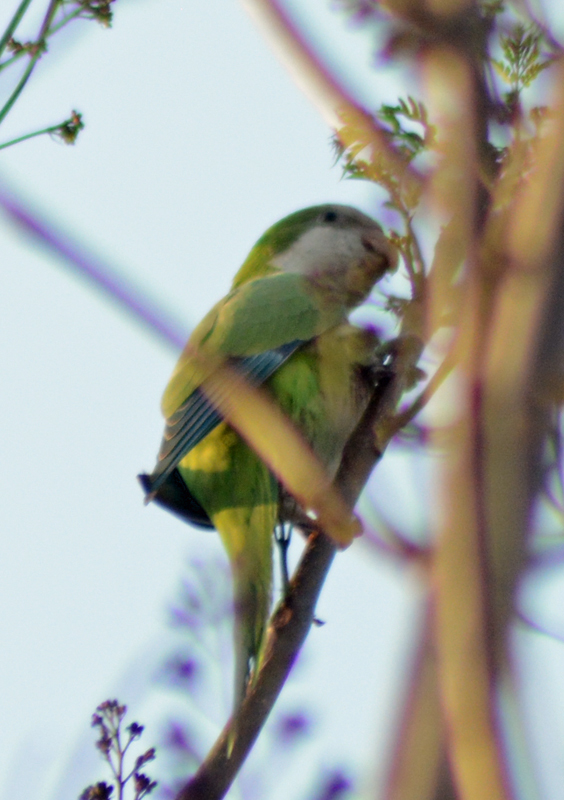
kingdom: Animalia
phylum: Chordata
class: Aves
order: Psittaciformes
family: Psittacidae
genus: Myiopsitta
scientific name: Myiopsitta monachus
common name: Monk parakeet
